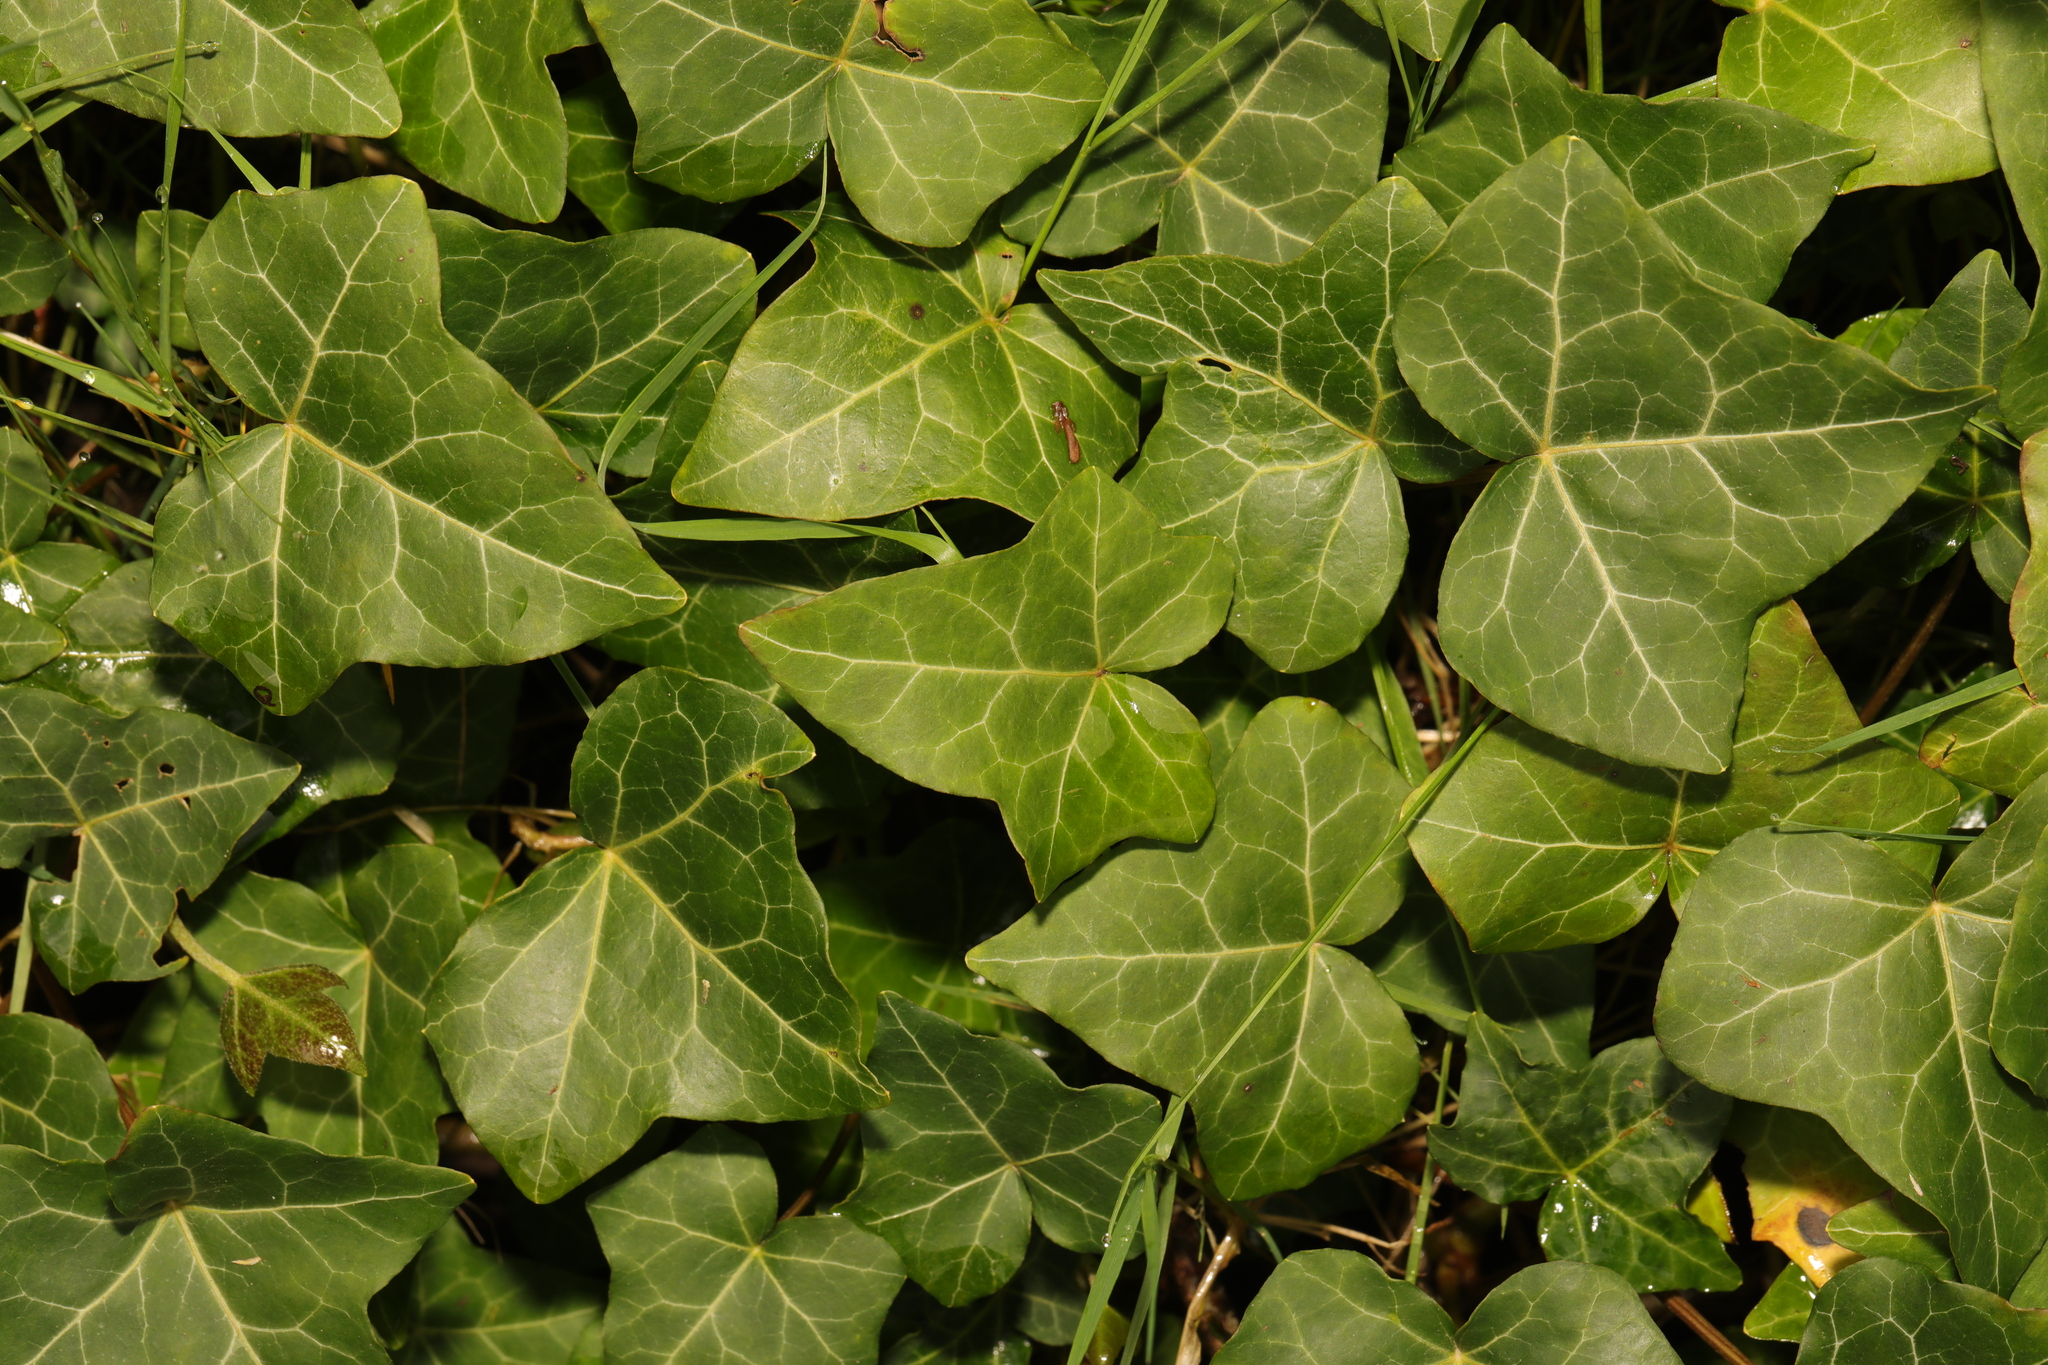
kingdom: Plantae
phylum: Tracheophyta
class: Magnoliopsida
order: Apiales
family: Araliaceae
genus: Hedera
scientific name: Hedera helix
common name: Ivy
